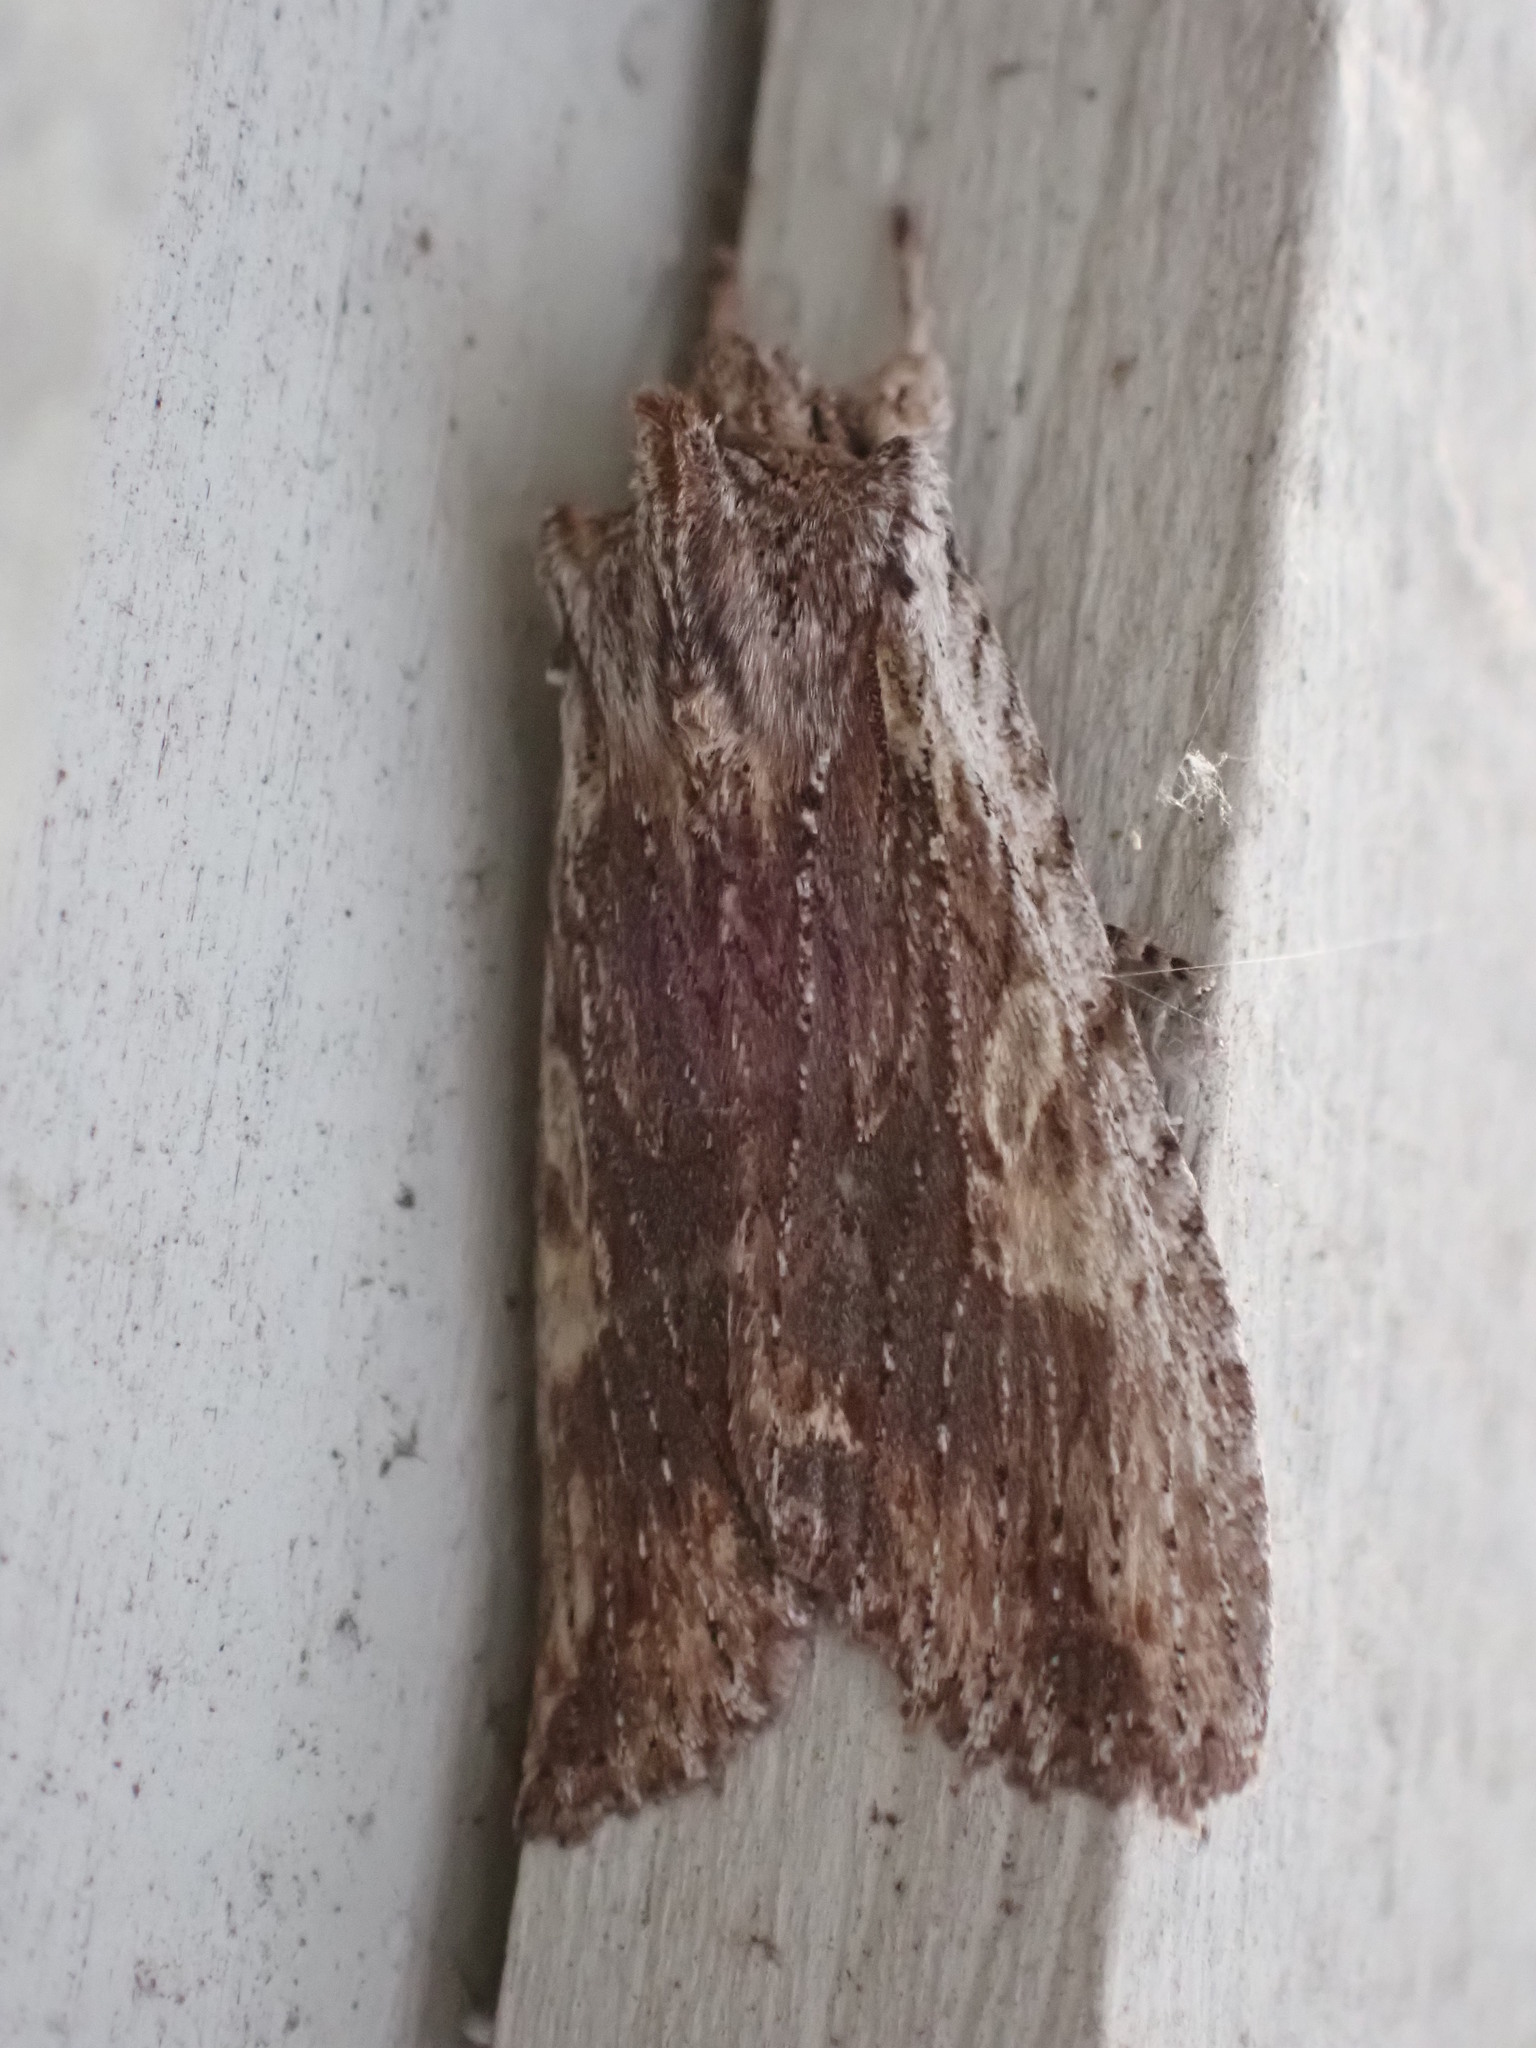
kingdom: Animalia
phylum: Arthropoda
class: Insecta
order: Lepidoptera
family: Noctuidae
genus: Lithophane
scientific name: Lithophane petulca
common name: Wanton pinion
